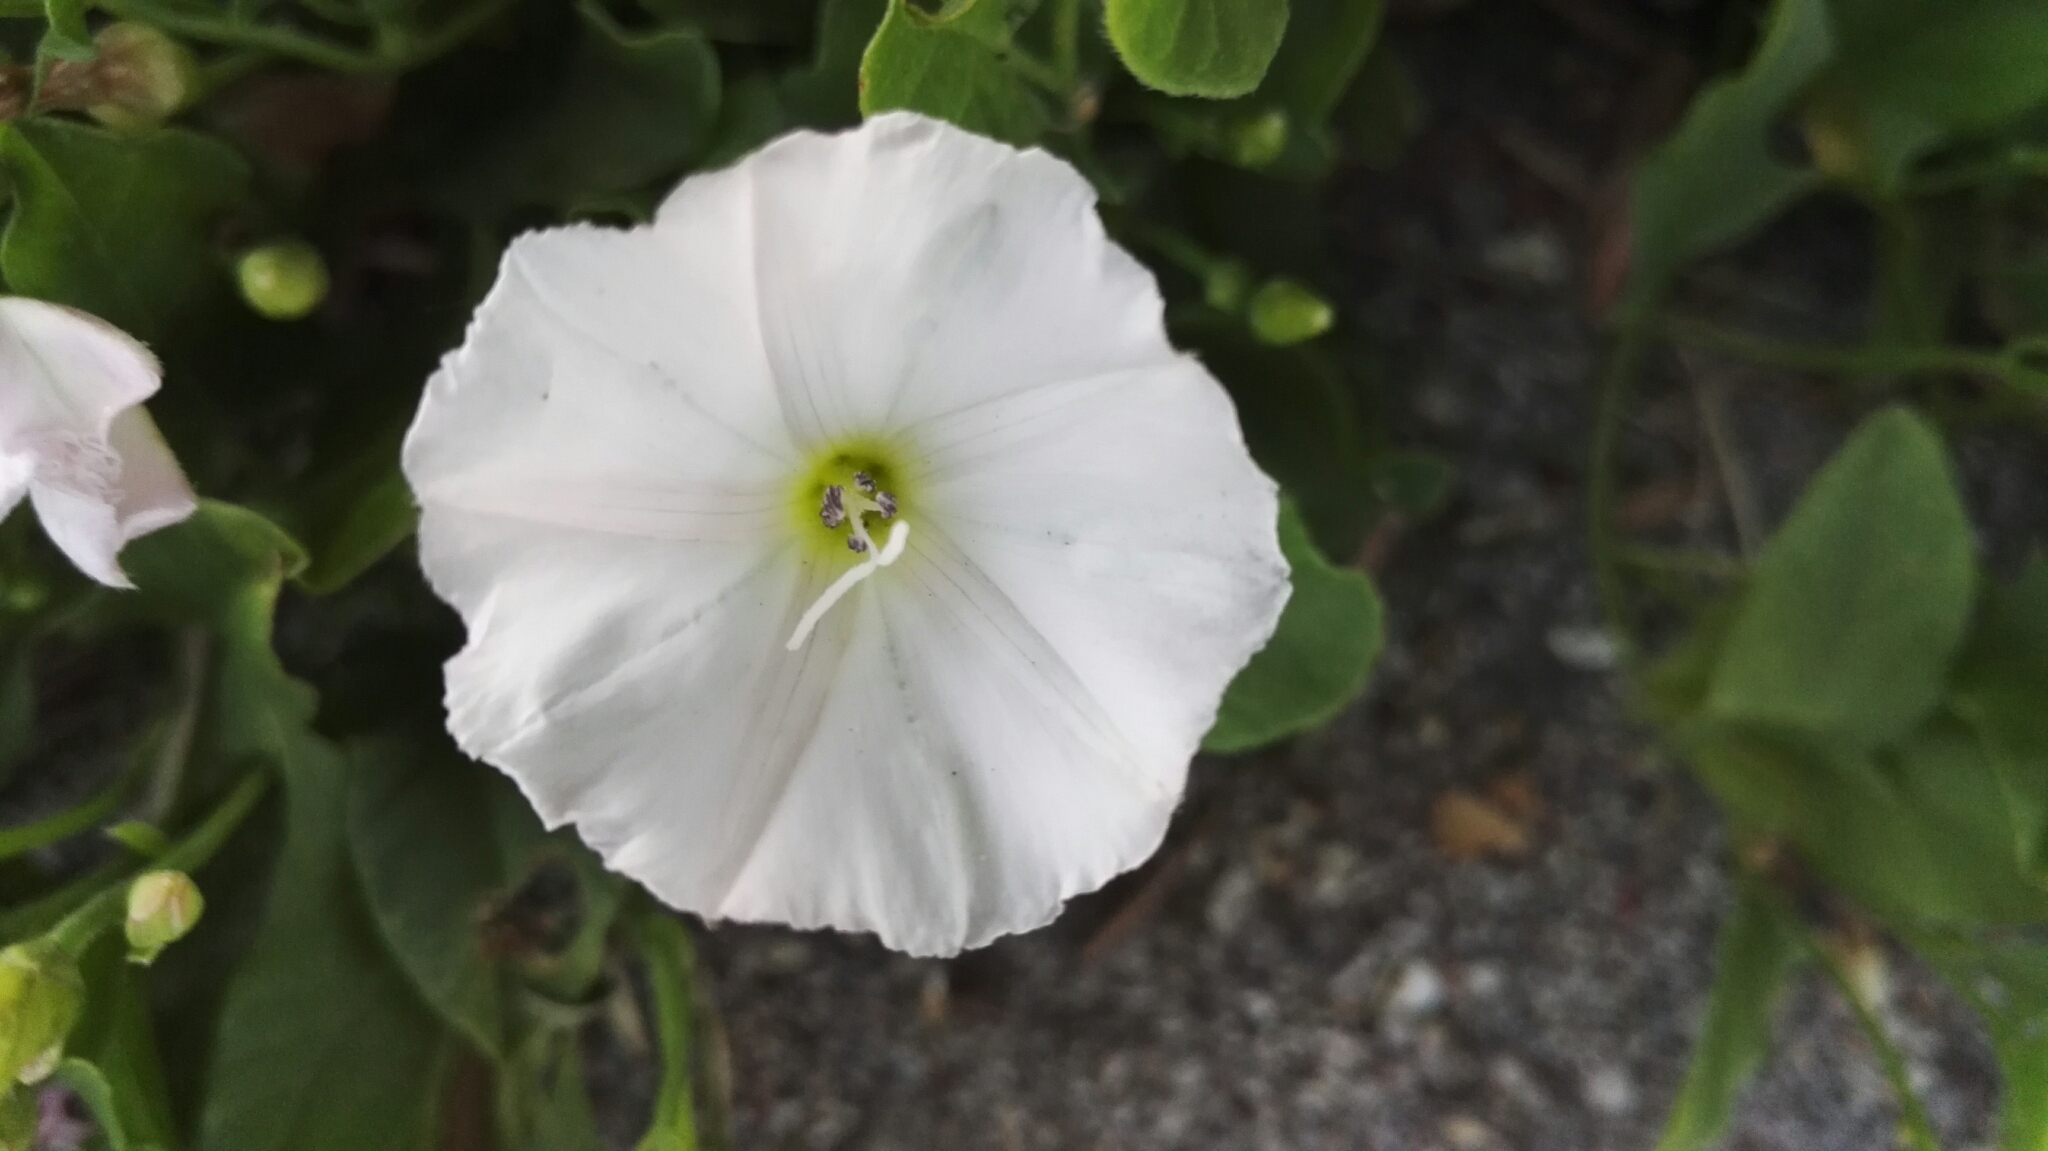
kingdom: Plantae
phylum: Tracheophyta
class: Magnoliopsida
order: Solanales
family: Convolvulaceae
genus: Convolvulus
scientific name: Convolvulus arvensis
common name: Field bindweed
